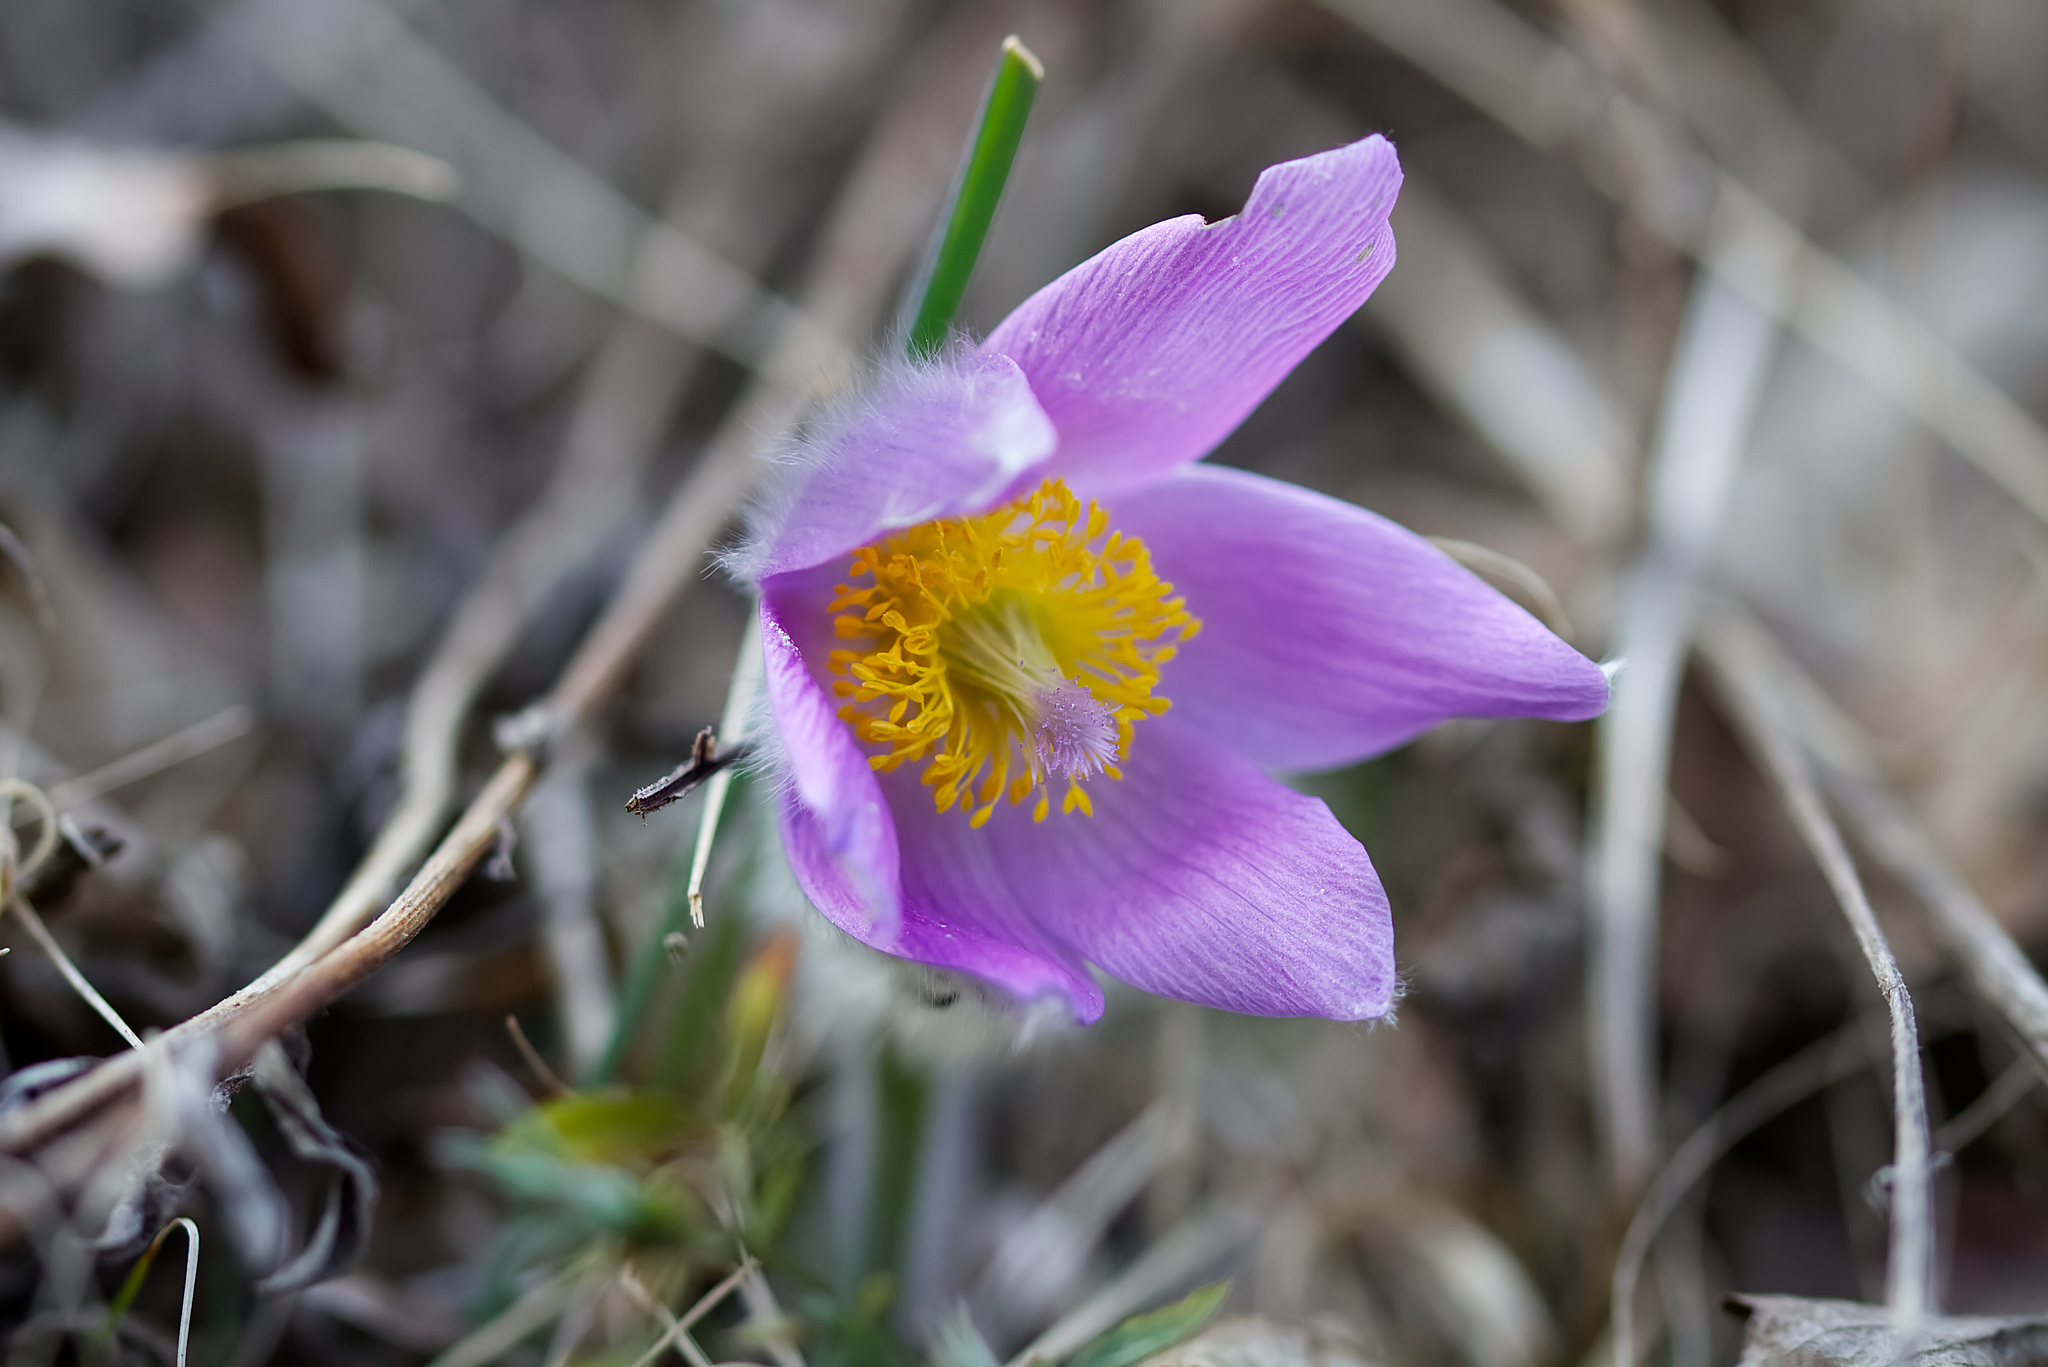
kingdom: Plantae
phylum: Tracheophyta
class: Magnoliopsida
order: Ranunculales
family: Ranunculaceae
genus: Pulsatilla
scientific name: Pulsatilla grandis
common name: Greater pasque flower
